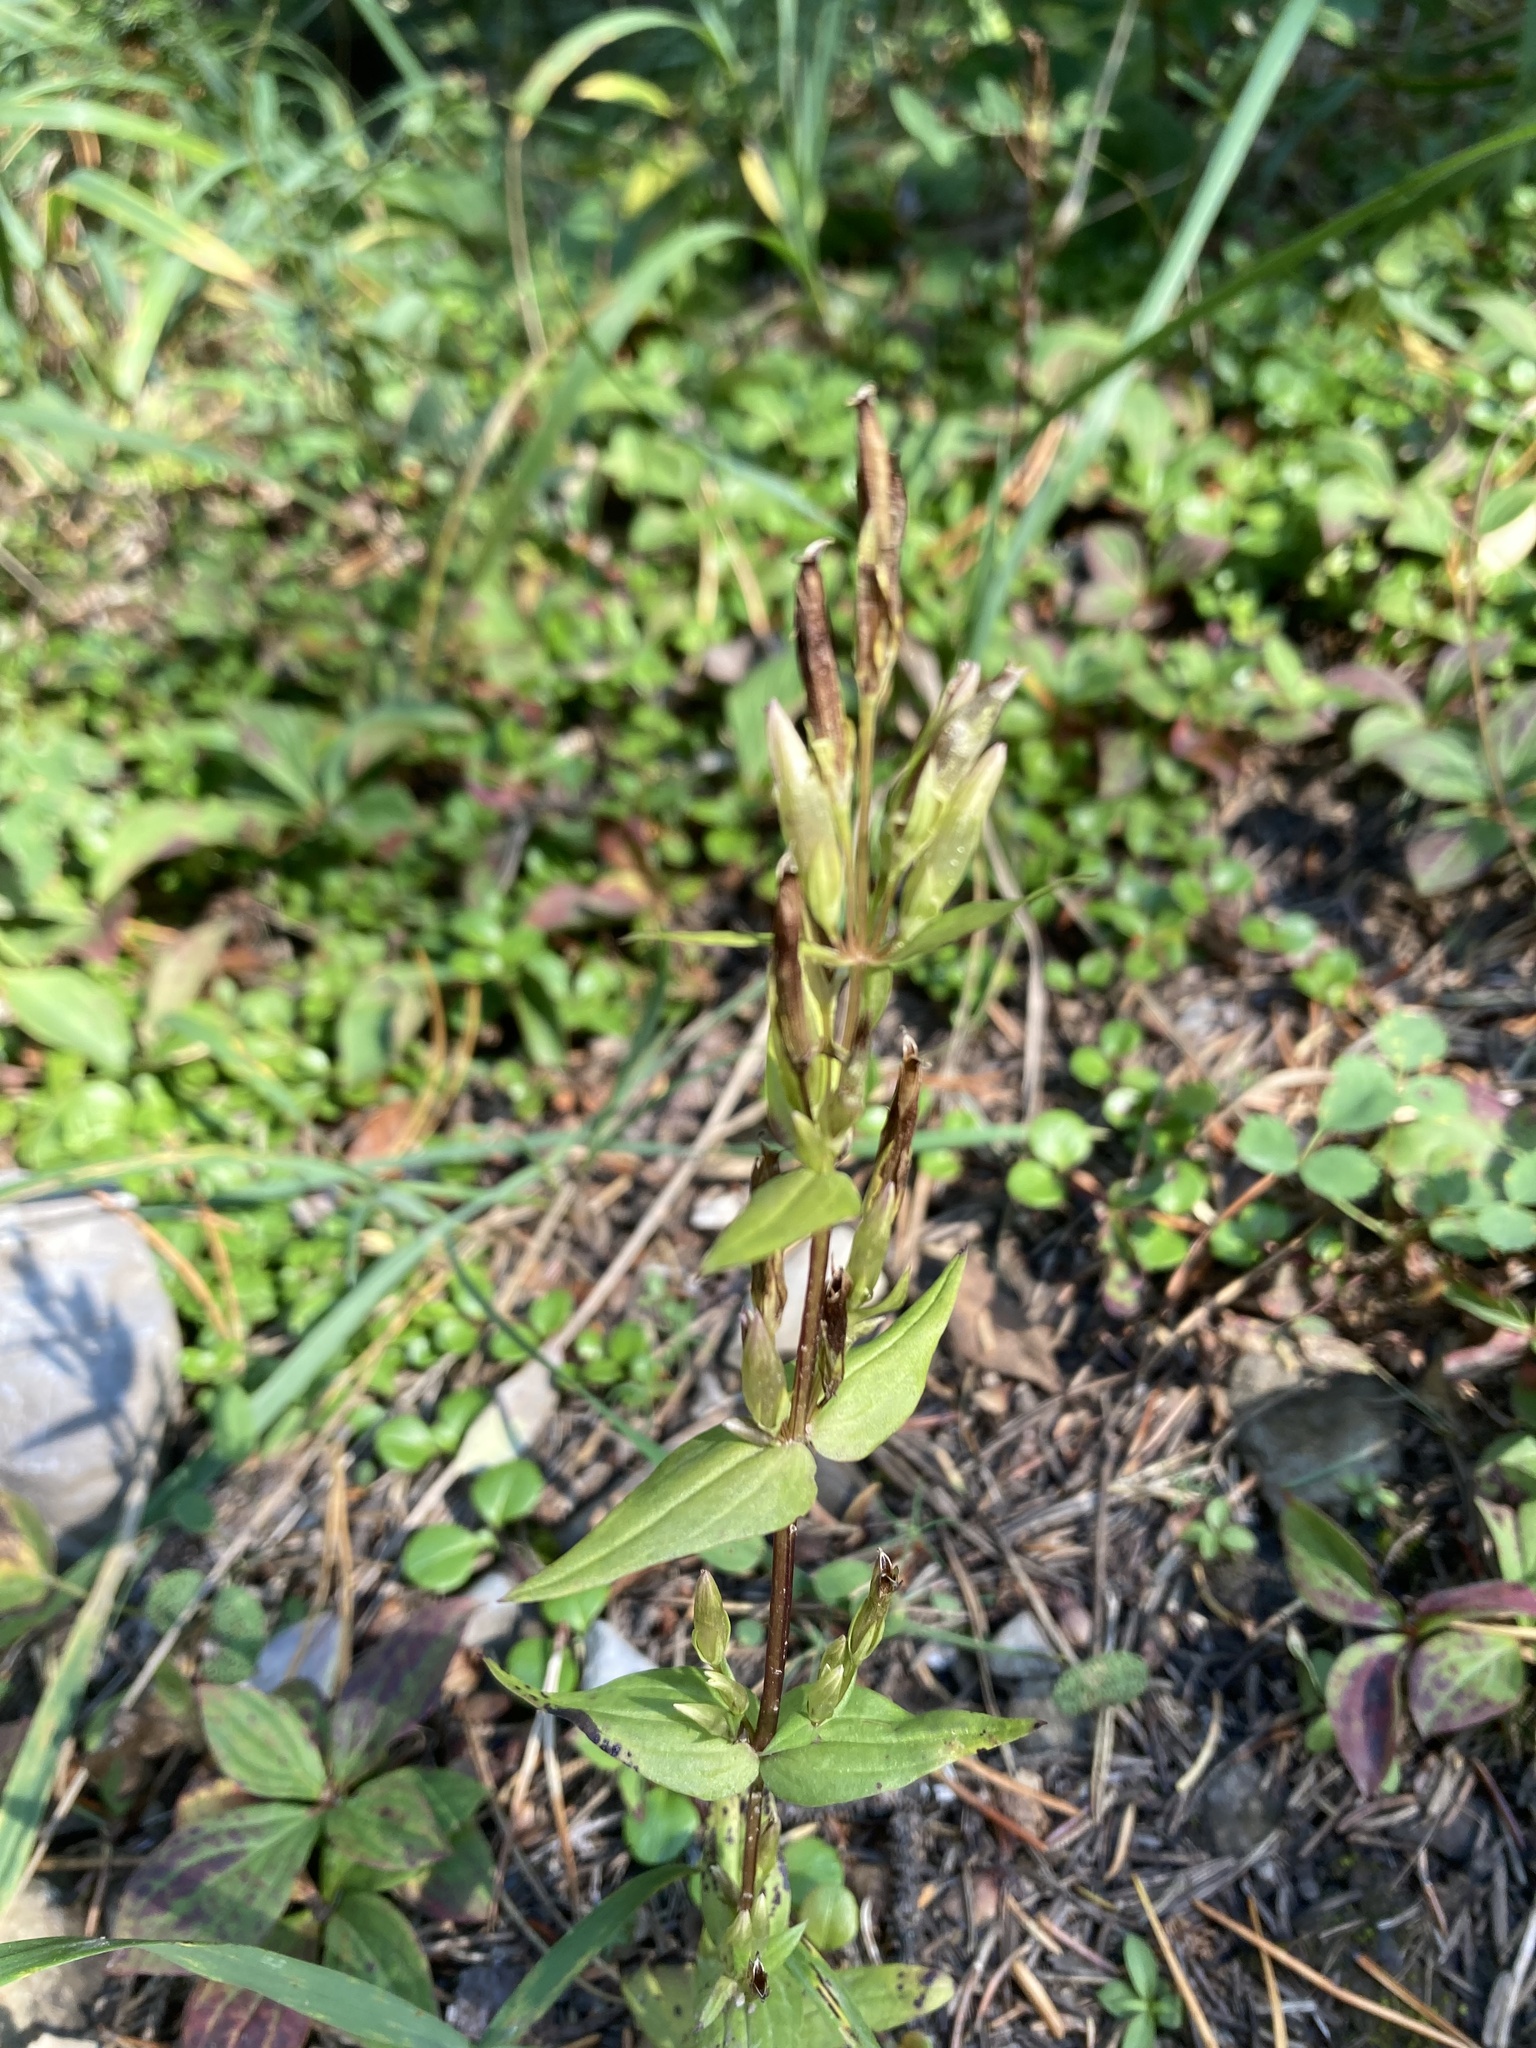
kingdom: Plantae
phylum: Tracheophyta
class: Magnoliopsida
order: Gentianales
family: Gentianaceae
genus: Gentianella
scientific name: Gentianella amarella
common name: Autumn gentian
